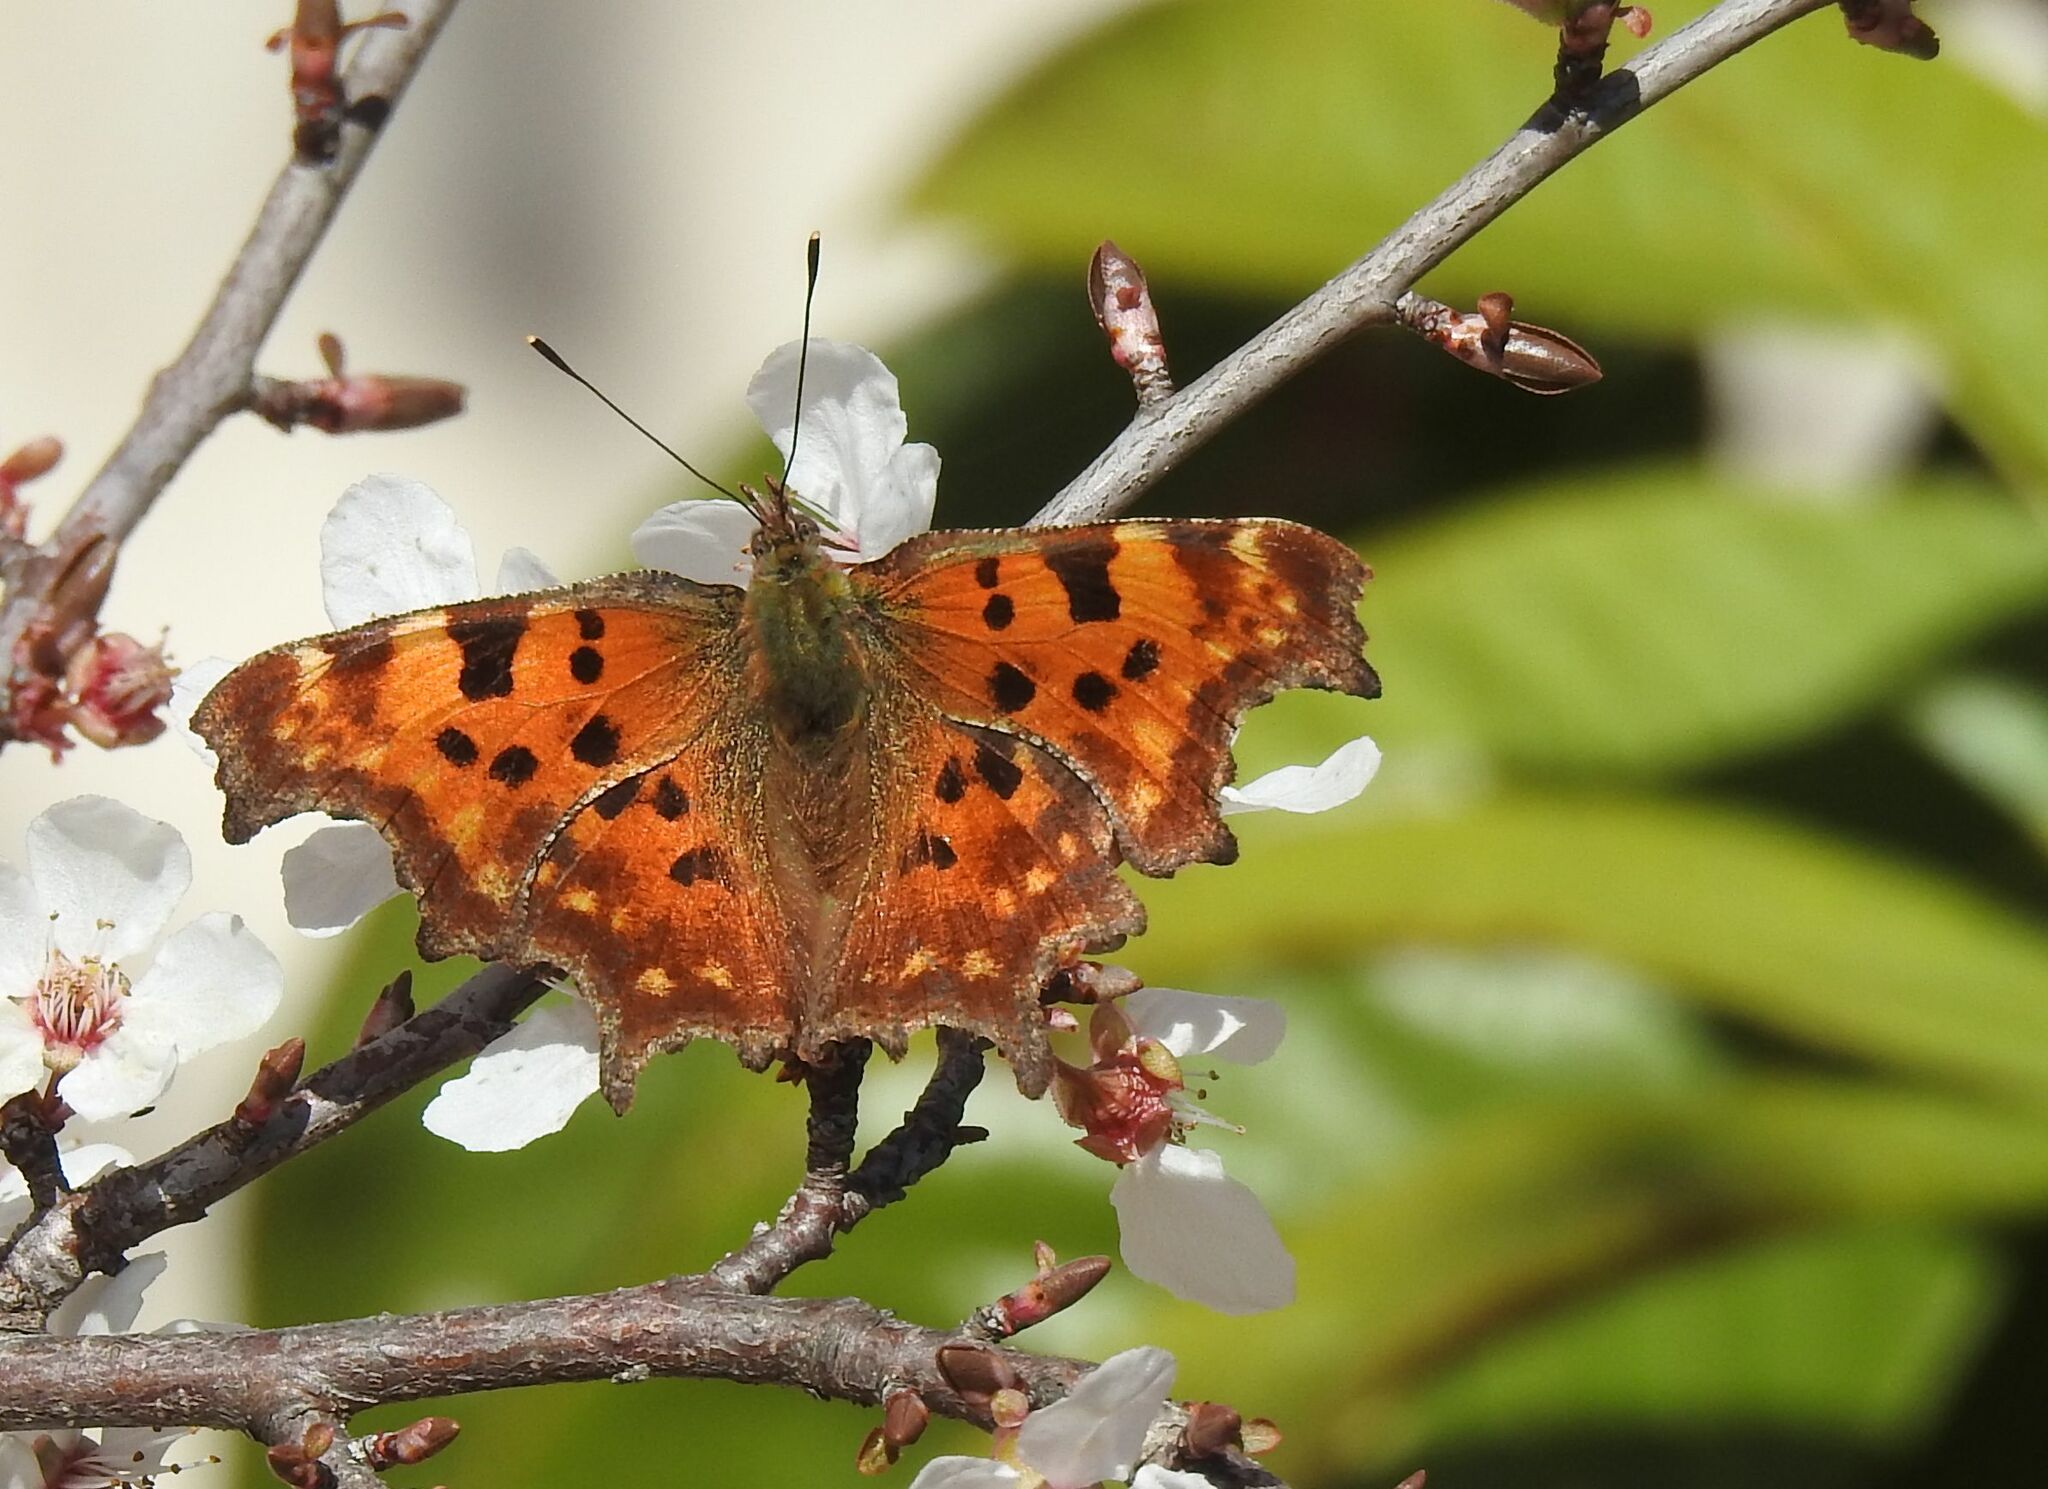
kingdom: Animalia
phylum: Arthropoda
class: Insecta
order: Lepidoptera
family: Nymphalidae
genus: Polygonia
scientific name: Polygonia c-album
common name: Comma
